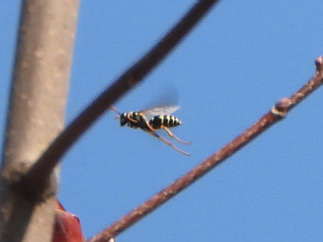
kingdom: Animalia
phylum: Arthropoda
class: Insecta
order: Hymenoptera
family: Eumenidae
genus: Polistes
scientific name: Polistes dominula
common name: Paper wasp
